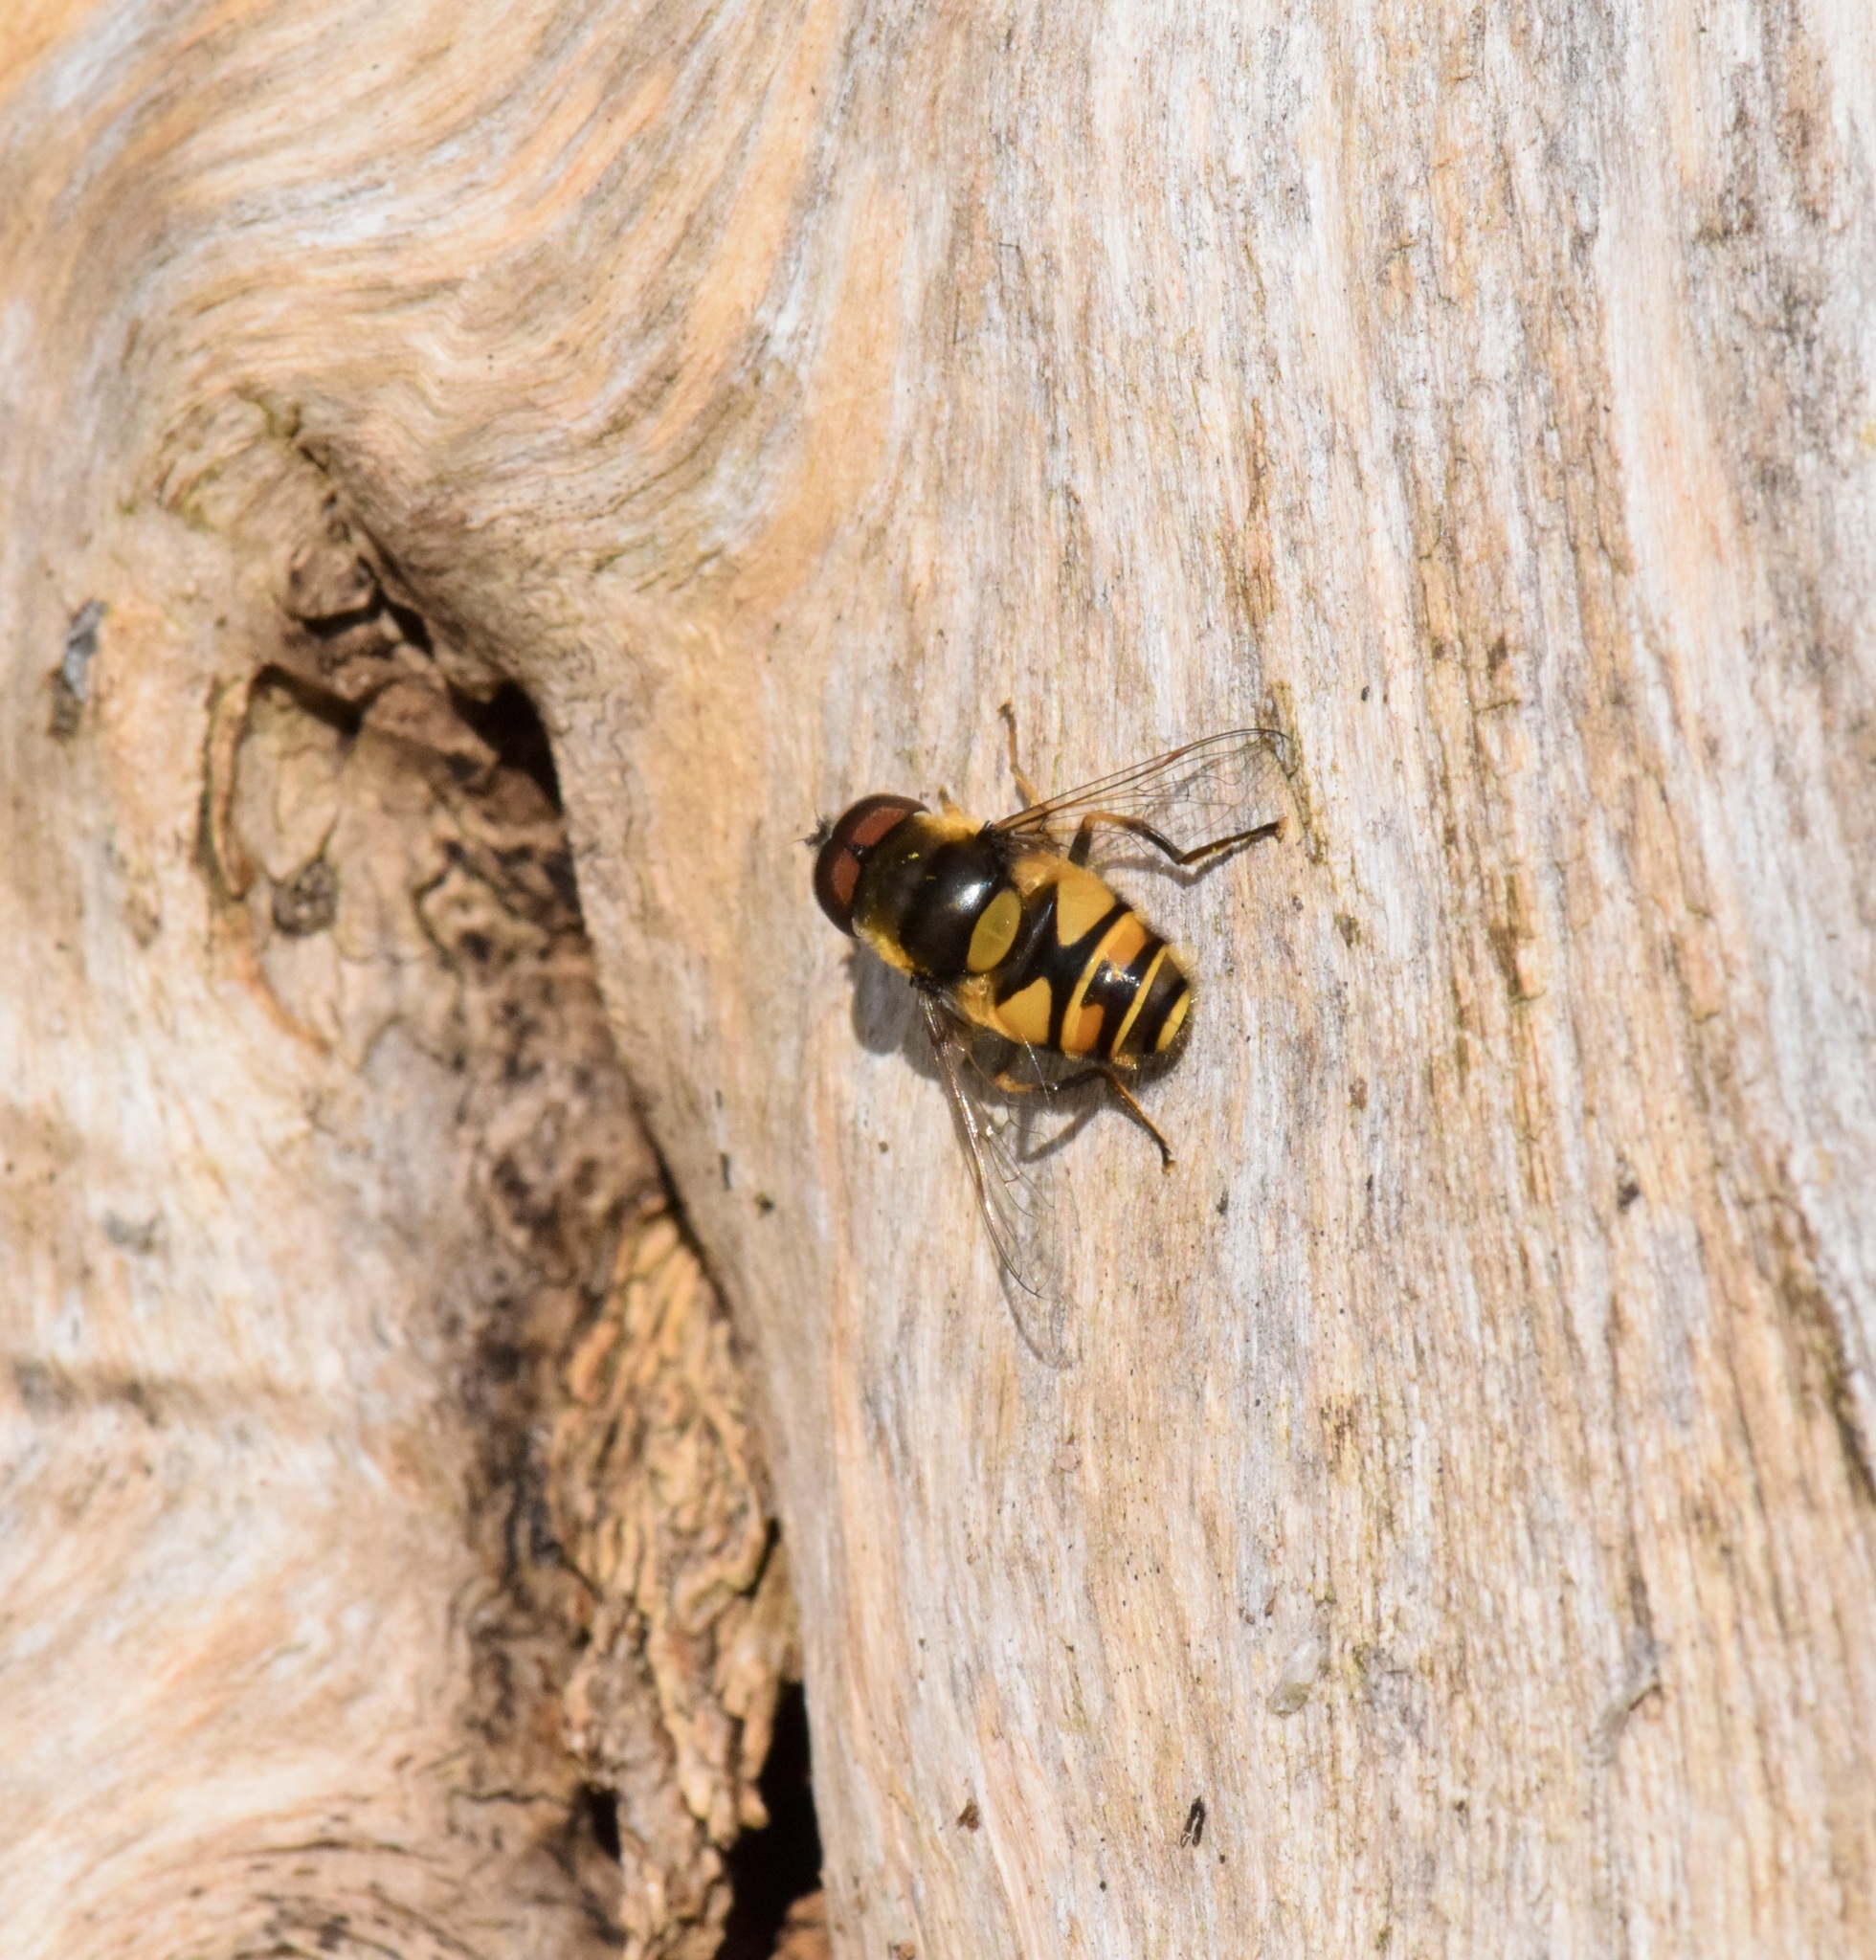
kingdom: Animalia
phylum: Arthropoda
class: Insecta
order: Diptera
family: Syrphidae
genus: Eristalis
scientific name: Eristalis transversa
